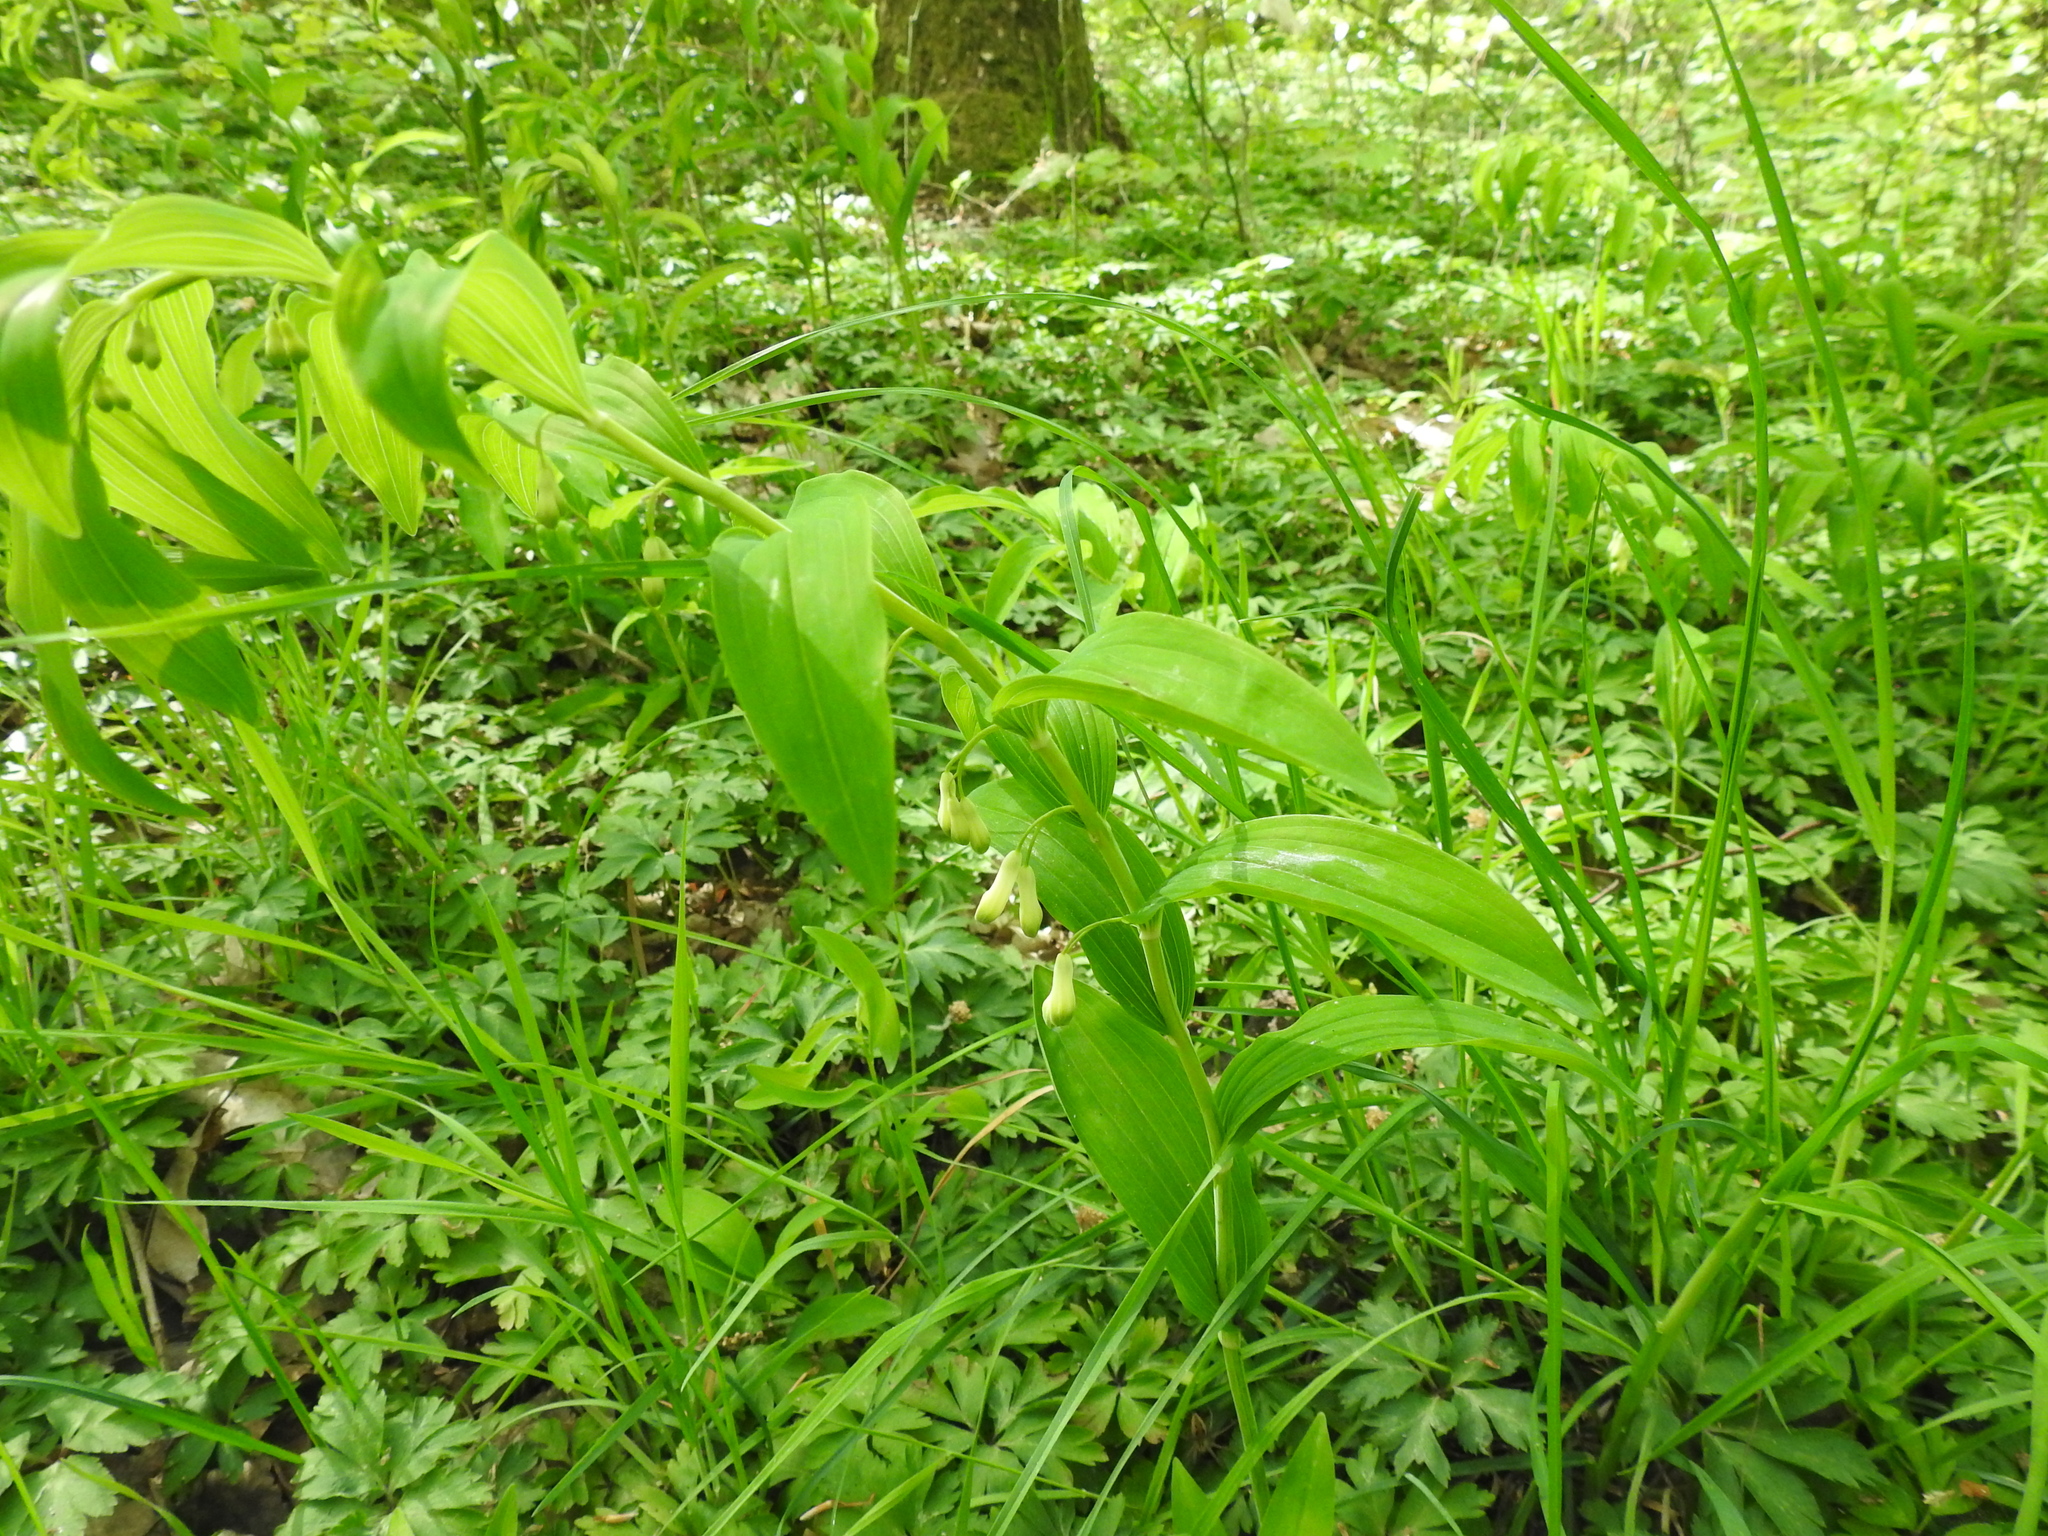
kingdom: Plantae
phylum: Tracheophyta
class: Liliopsida
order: Asparagales
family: Asparagaceae
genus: Polygonatum
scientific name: Polygonatum multiflorum
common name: Solomon's-seal
